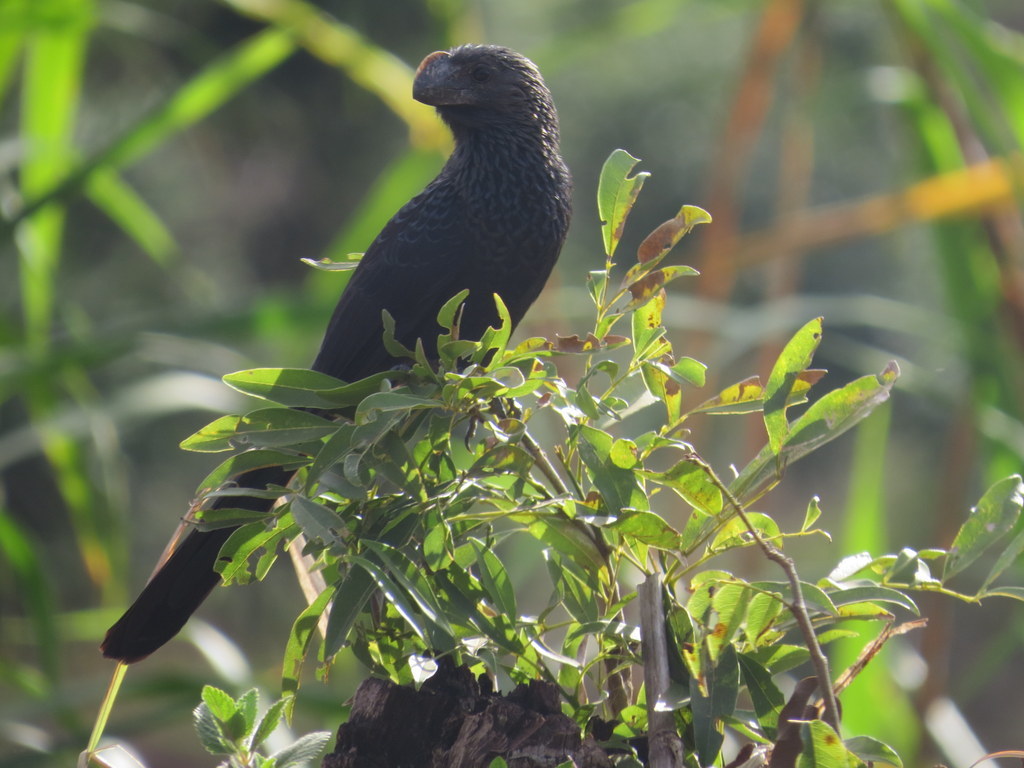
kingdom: Animalia
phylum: Chordata
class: Aves
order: Cuculiformes
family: Cuculidae
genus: Crotophaga
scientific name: Crotophaga ani
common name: Smooth-billed ani
